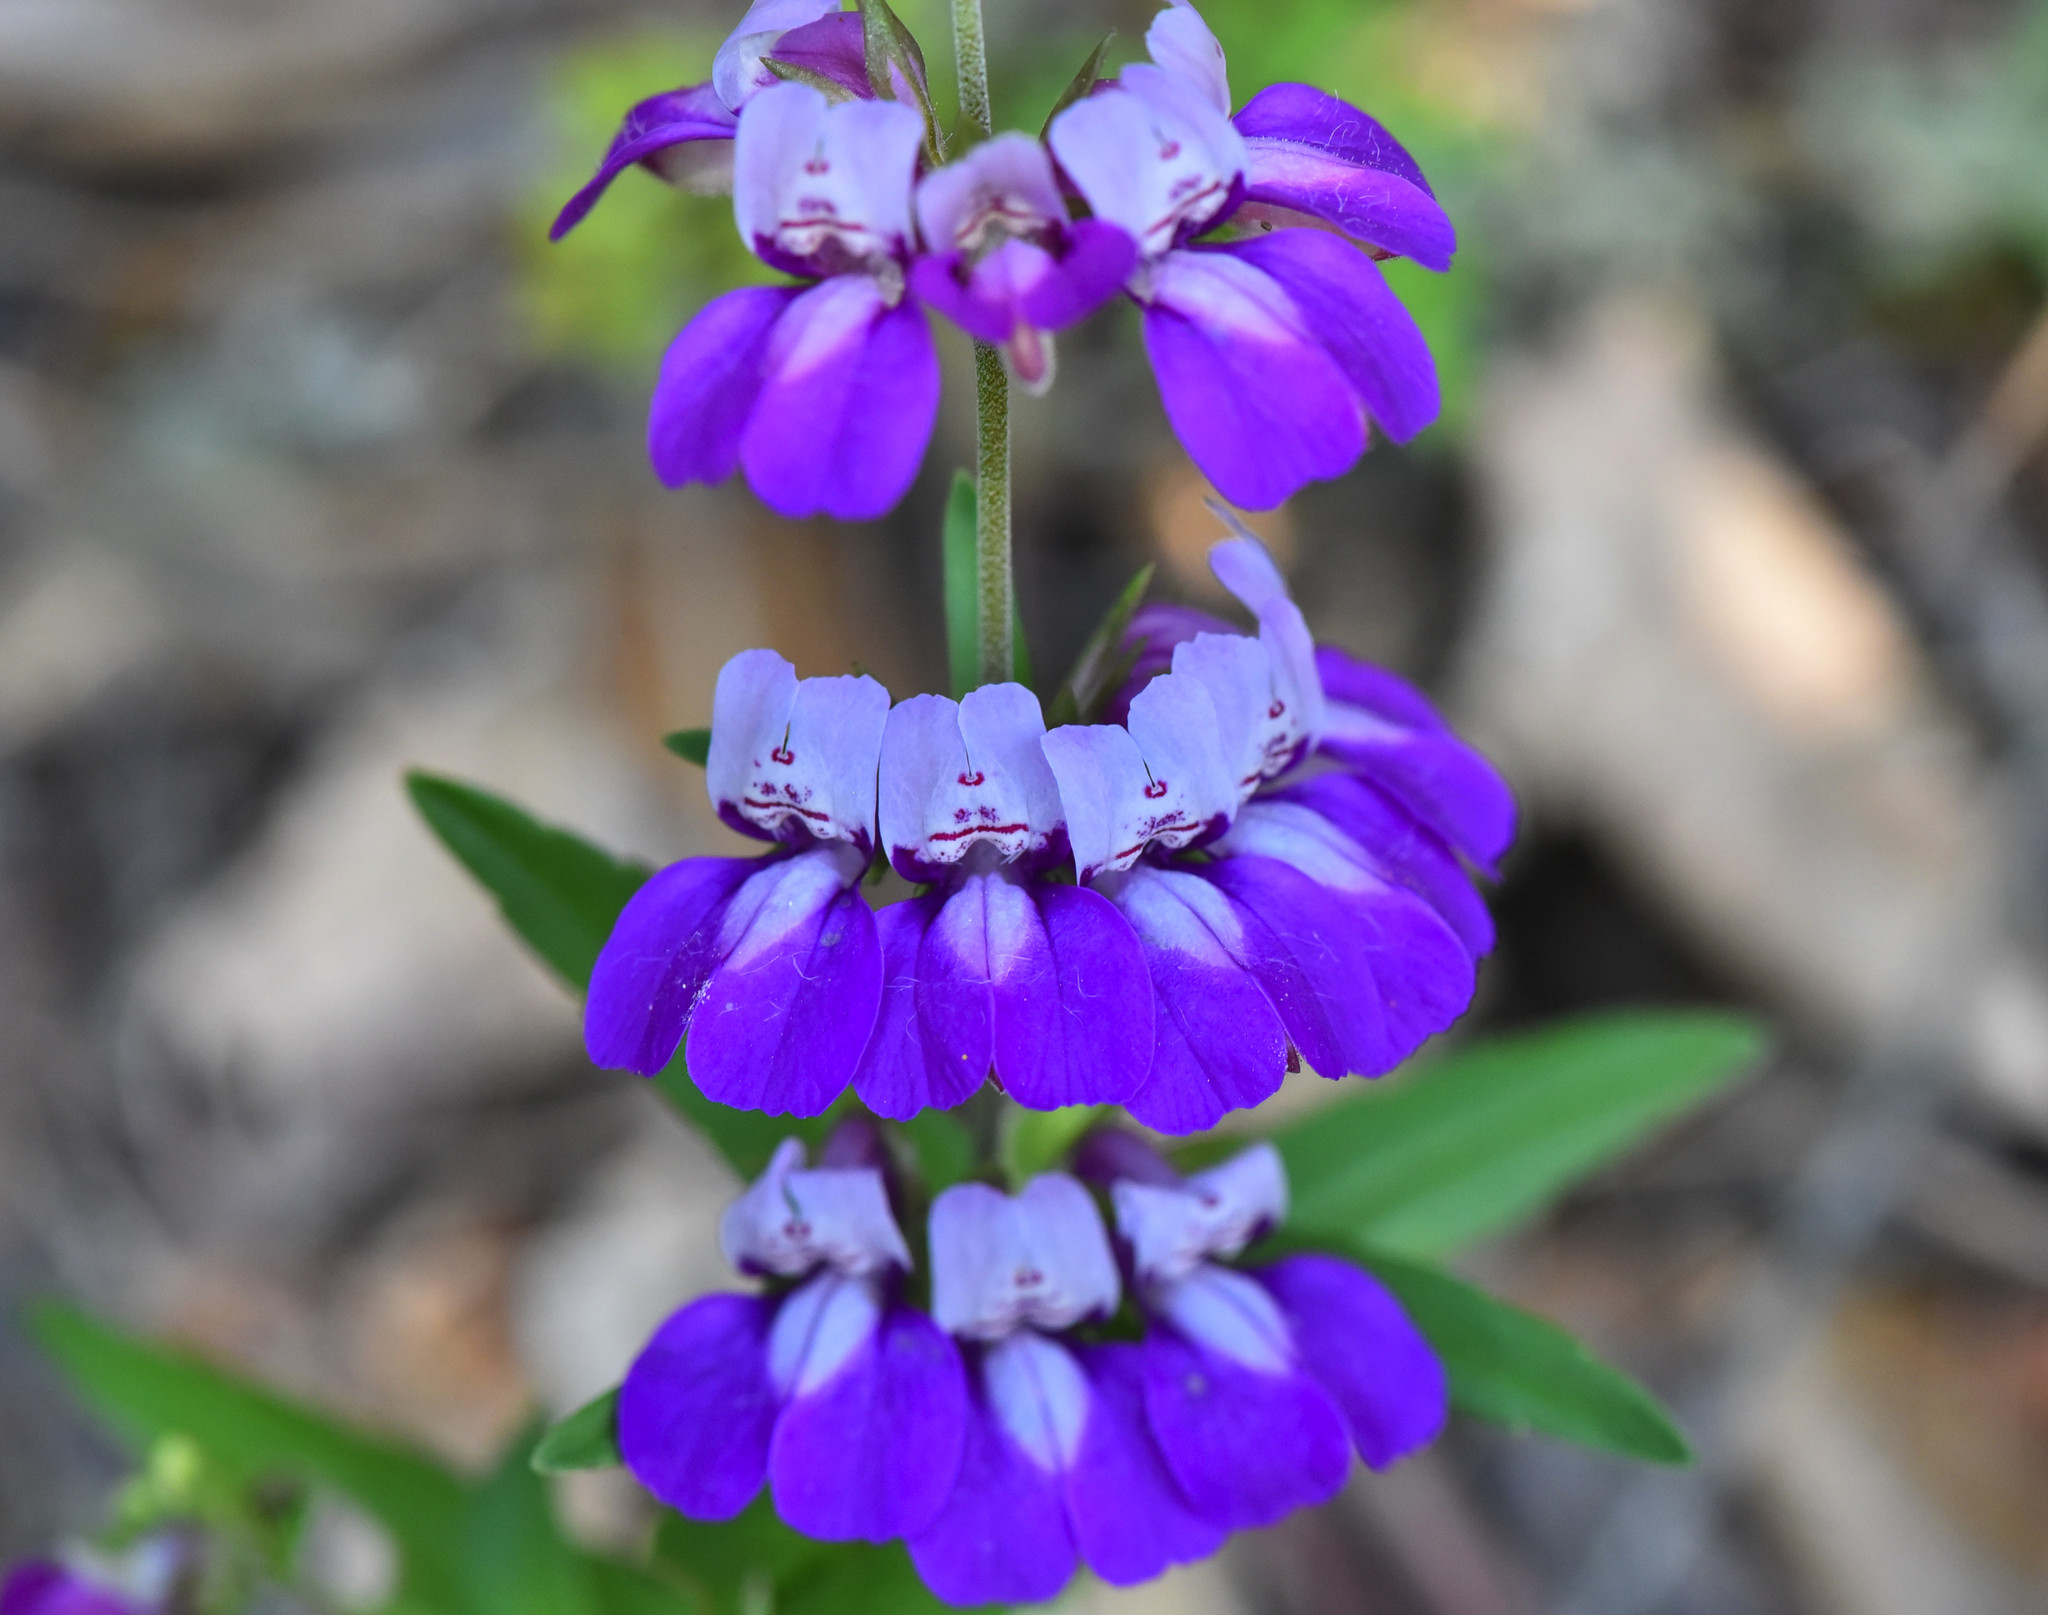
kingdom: Plantae
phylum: Tracheophyta
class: Magnoliopsida
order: Lamiales
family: Plantaginaceae
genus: Collinsia
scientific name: Collinsia heterophylla
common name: Chinese-houses
